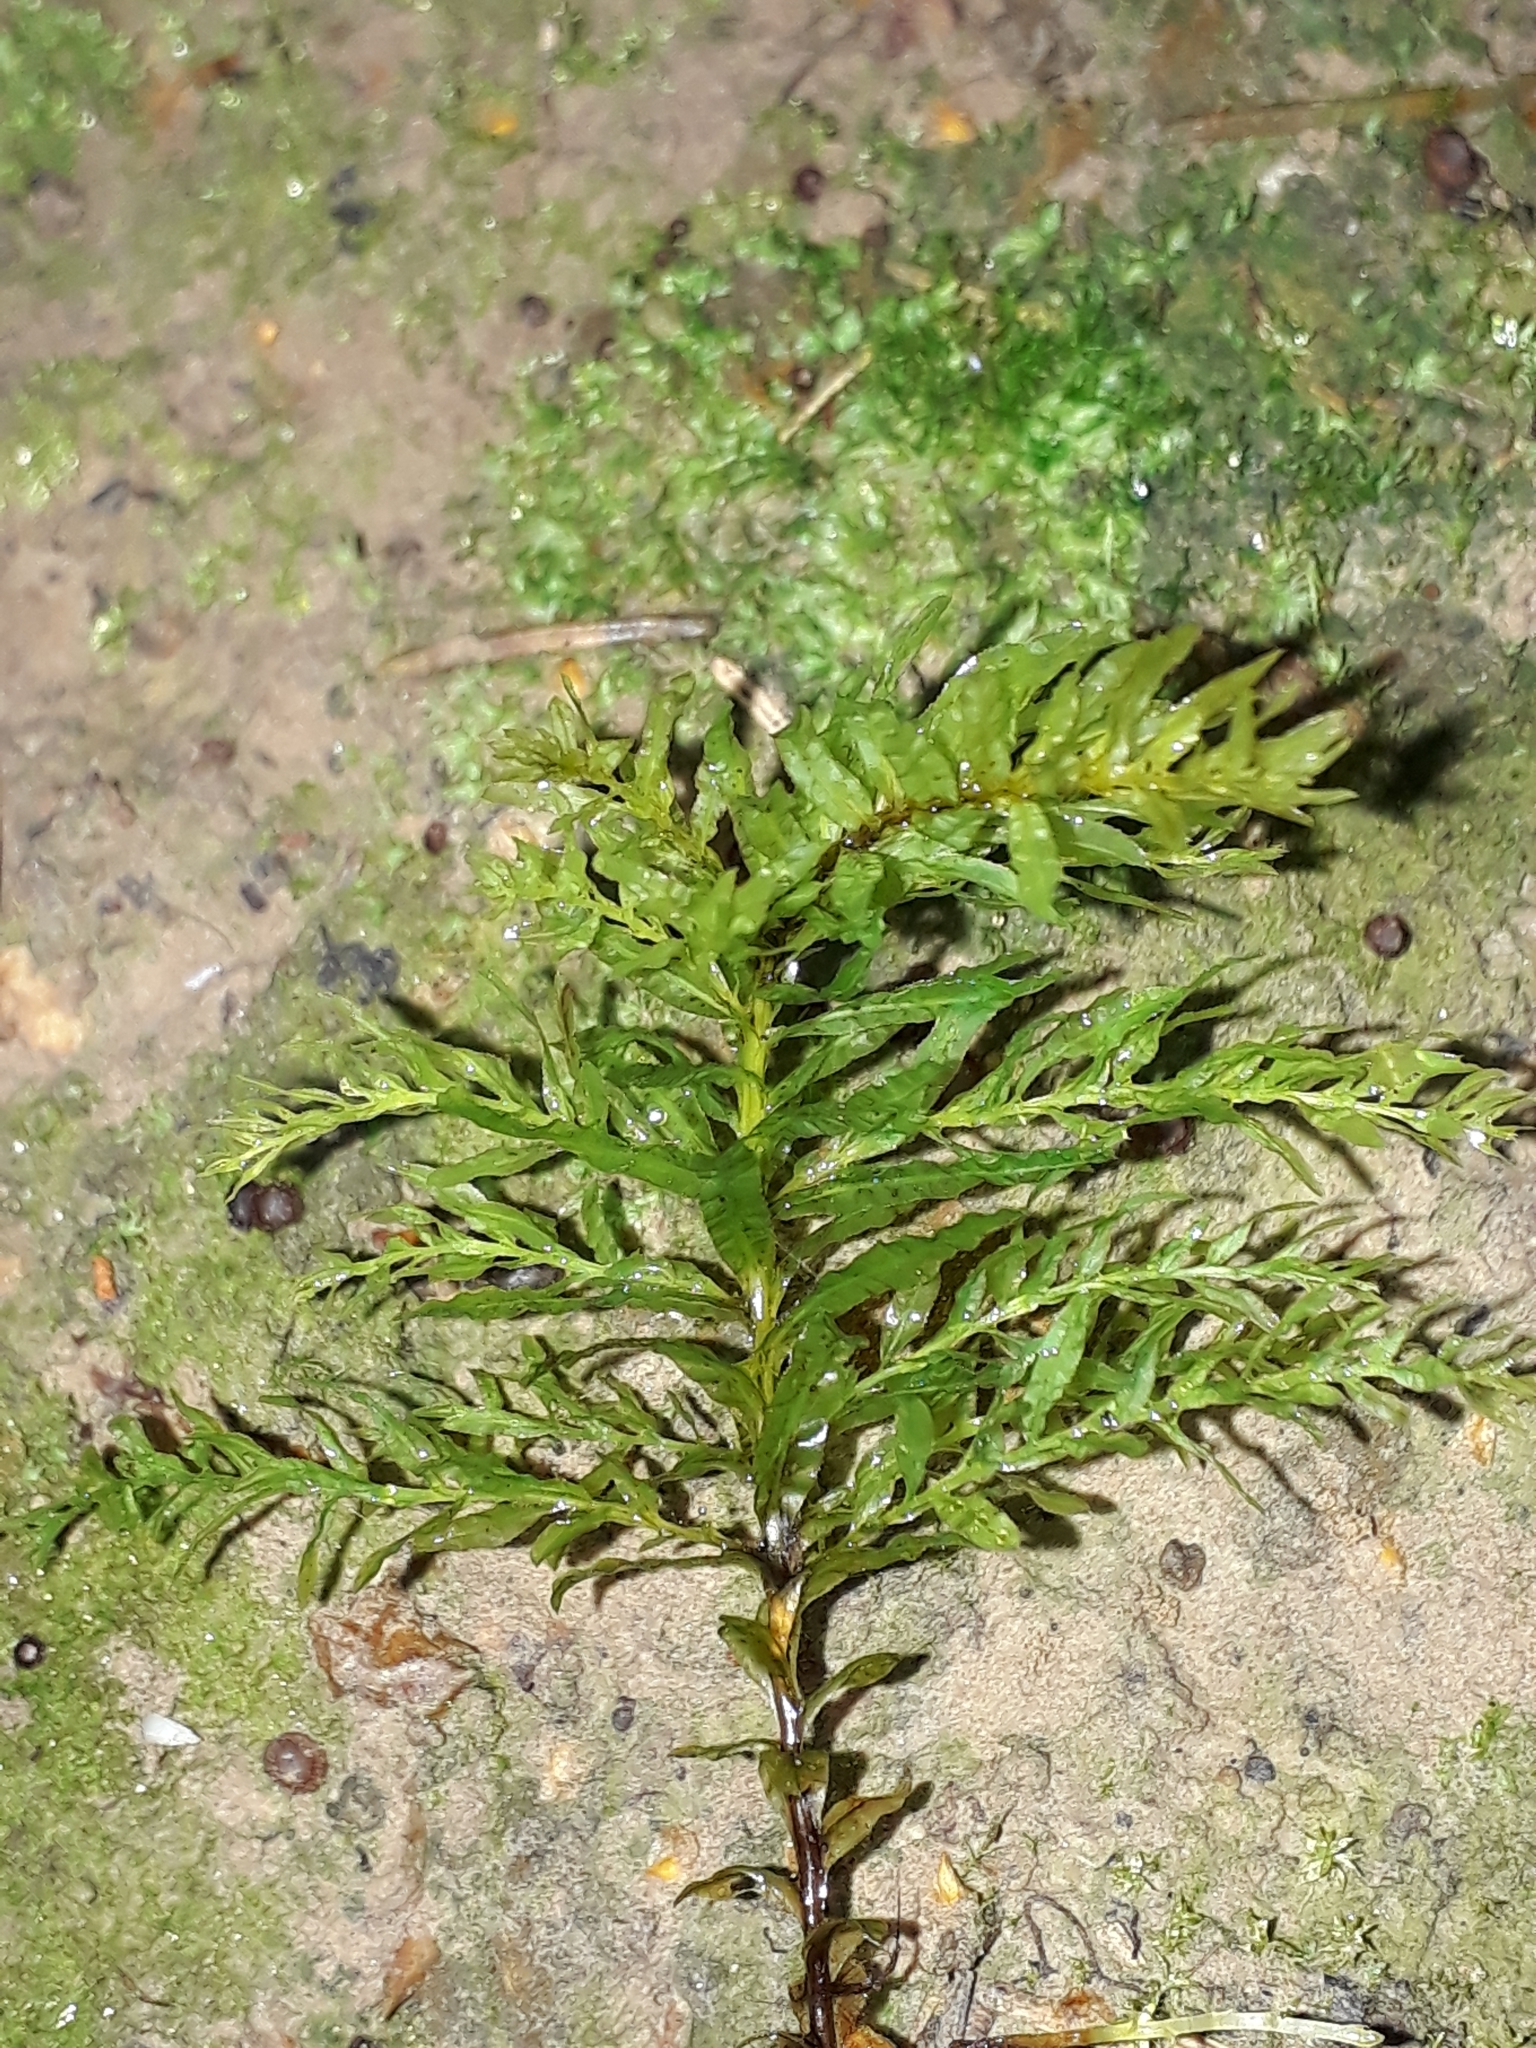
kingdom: Plantae
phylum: Bryophyta
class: Bryopsida
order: Bryales
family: Mniaceae
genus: Plagiomnium
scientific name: Plagiomnium undulatum
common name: Hart's-tongue thyme-moss
